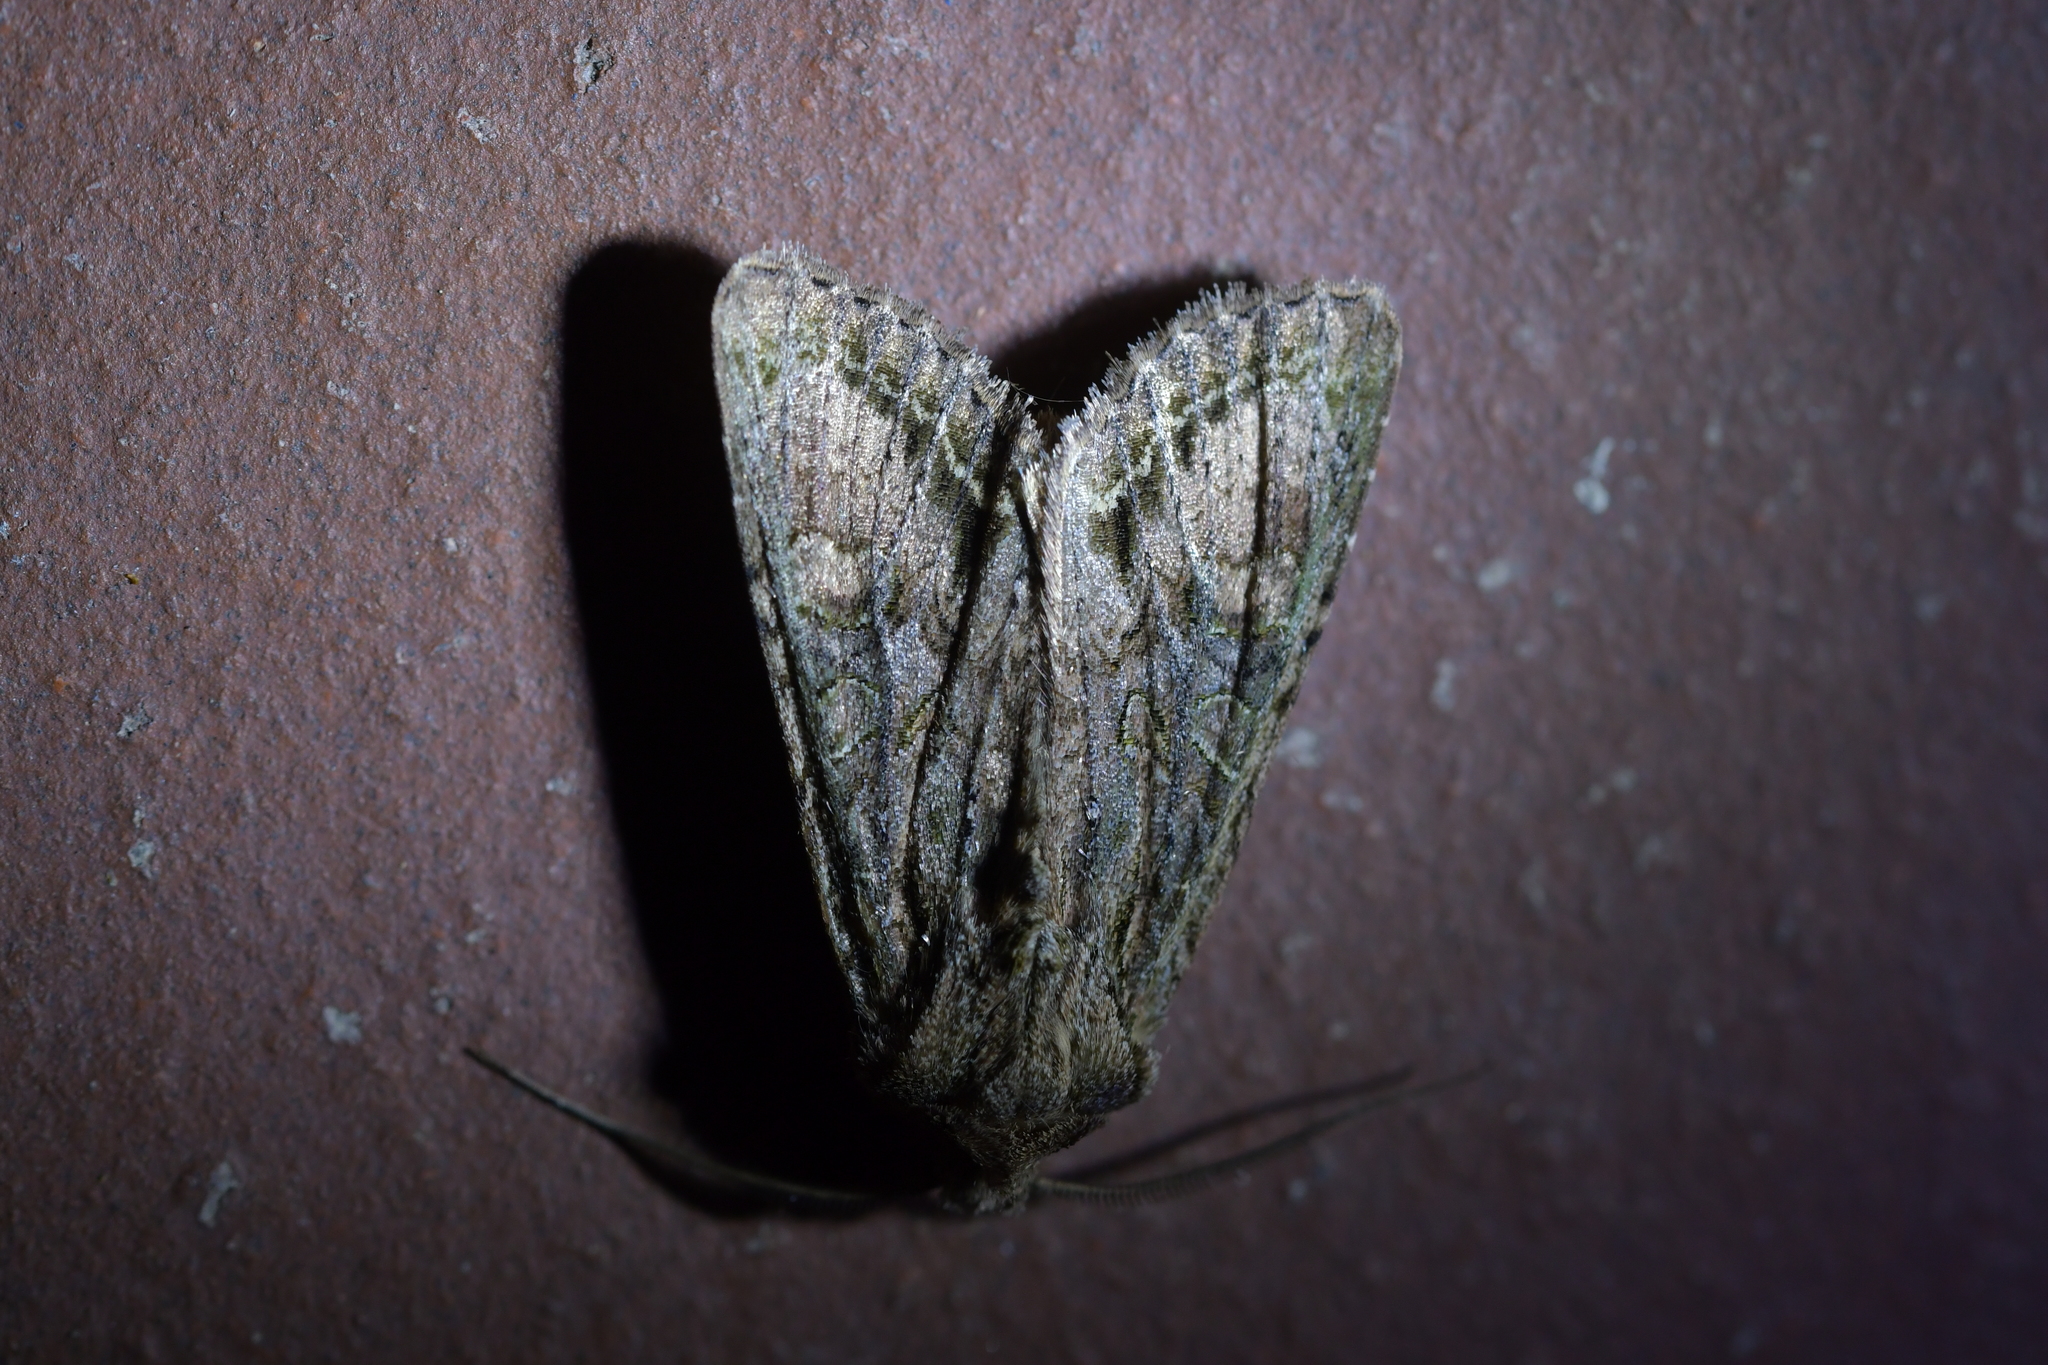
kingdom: Animalia
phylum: Arthropoda
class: Insecta
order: Lepidoptera
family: Noctuidae
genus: Ichneutica
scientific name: Ichneutica mutans
